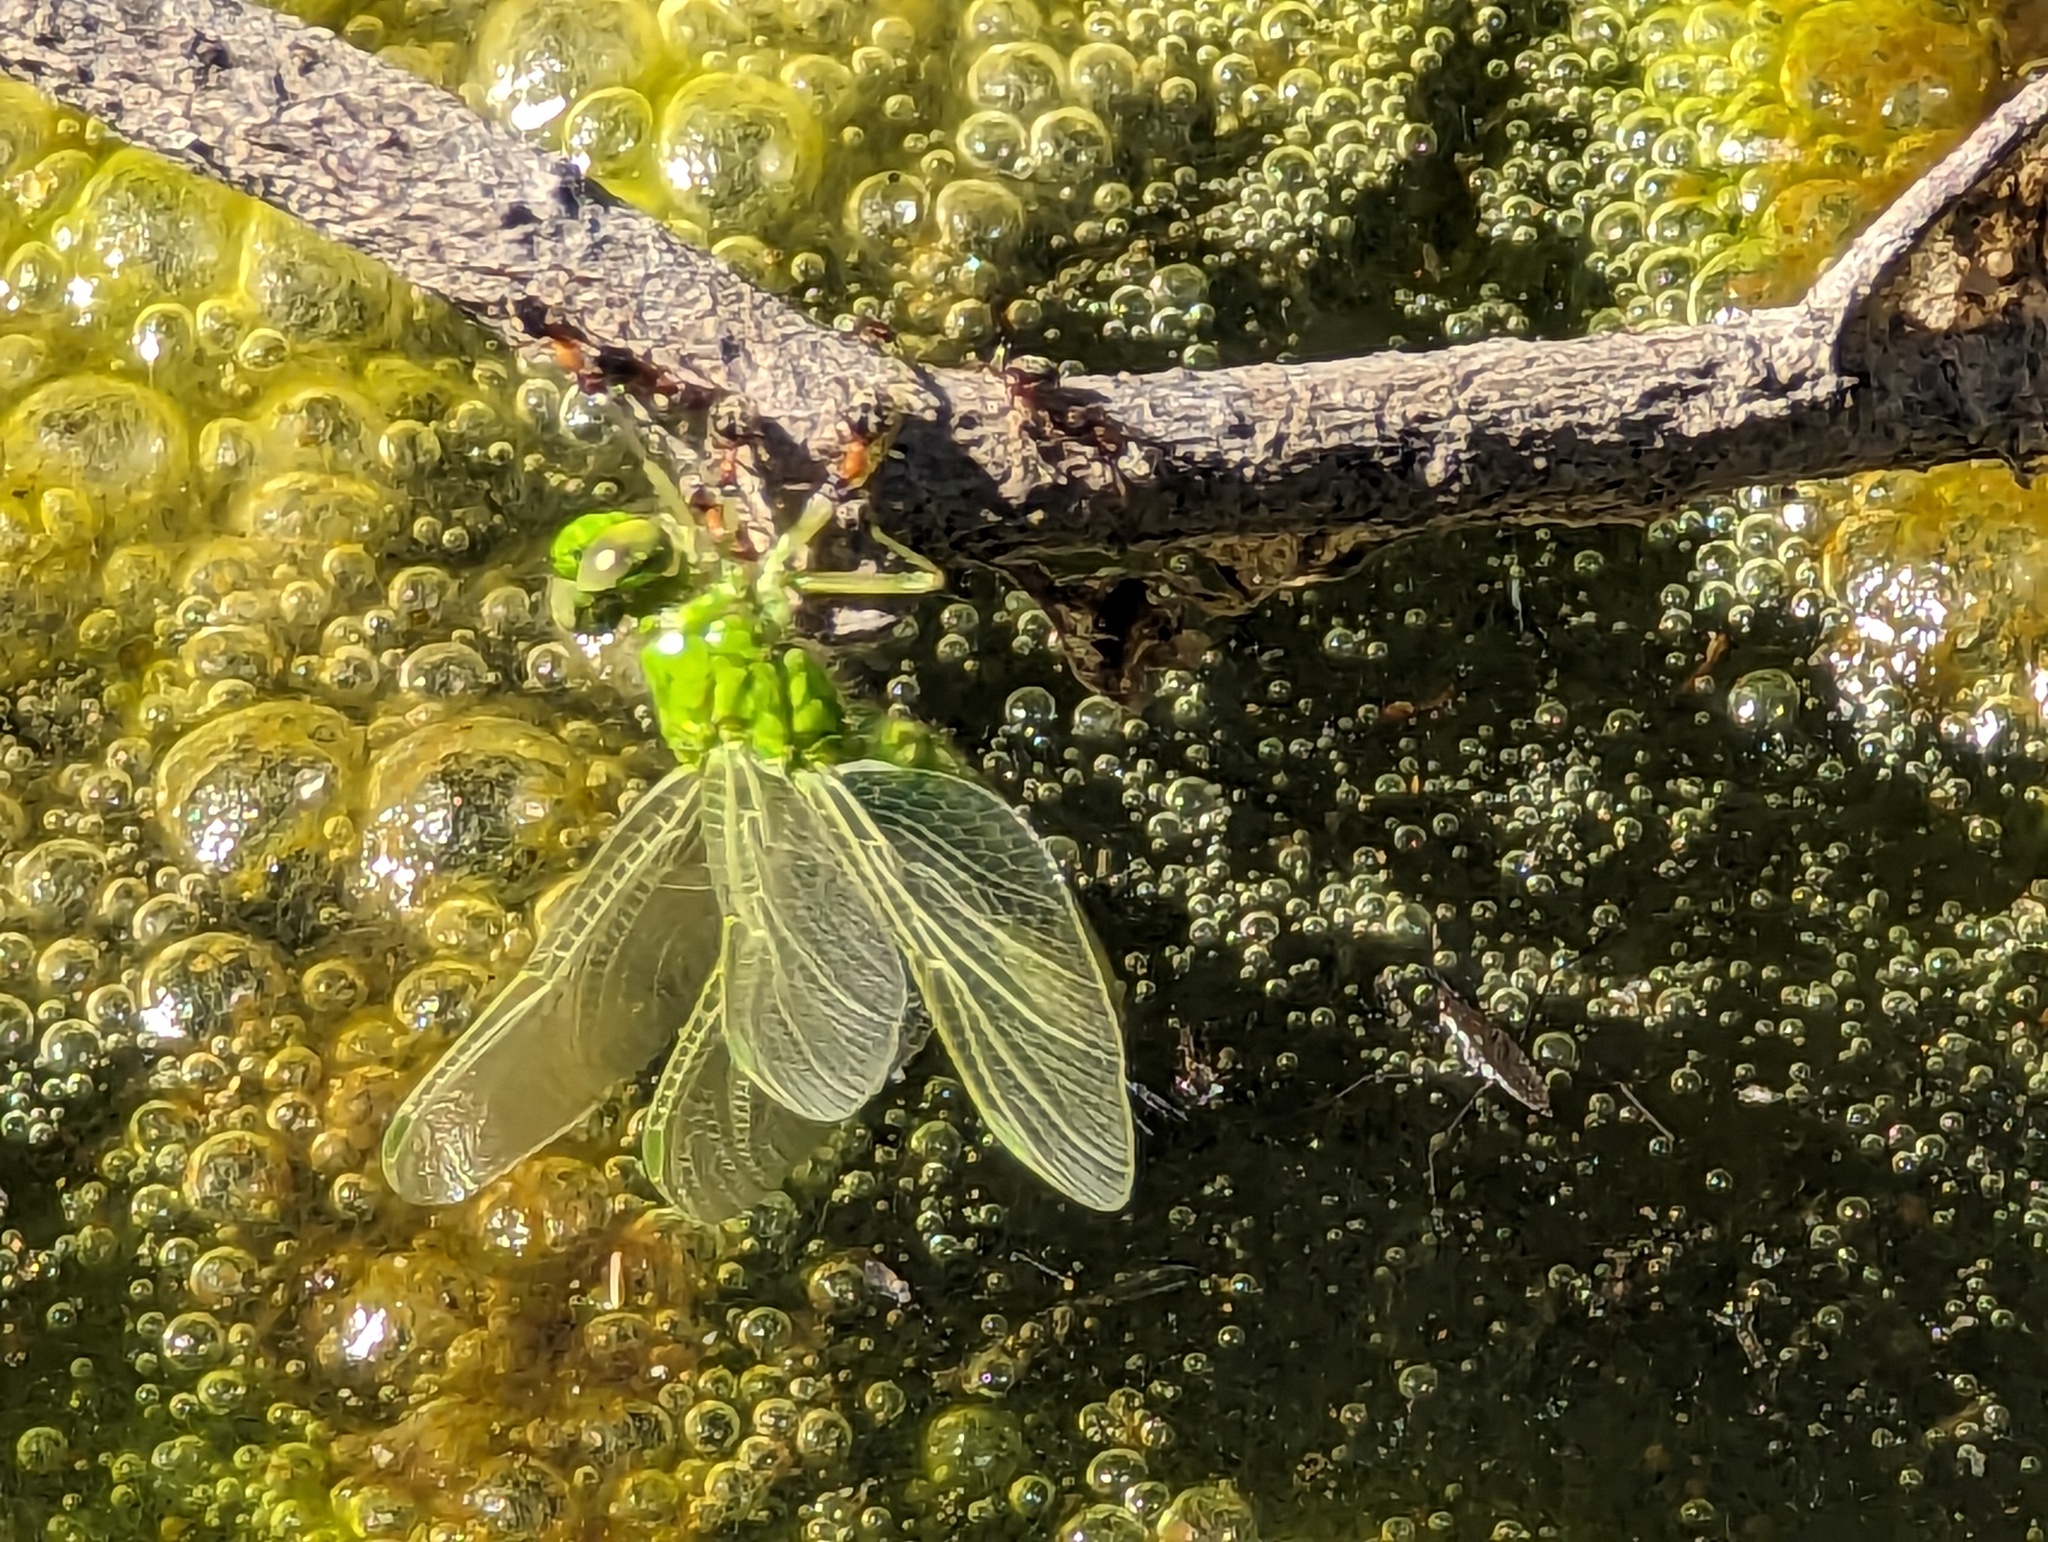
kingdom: Animalia
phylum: Arthropoda
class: Insecta
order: Odonata
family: Libellulidae
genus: Erythemis
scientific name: Erythemis collocata
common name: Western pondhawk
